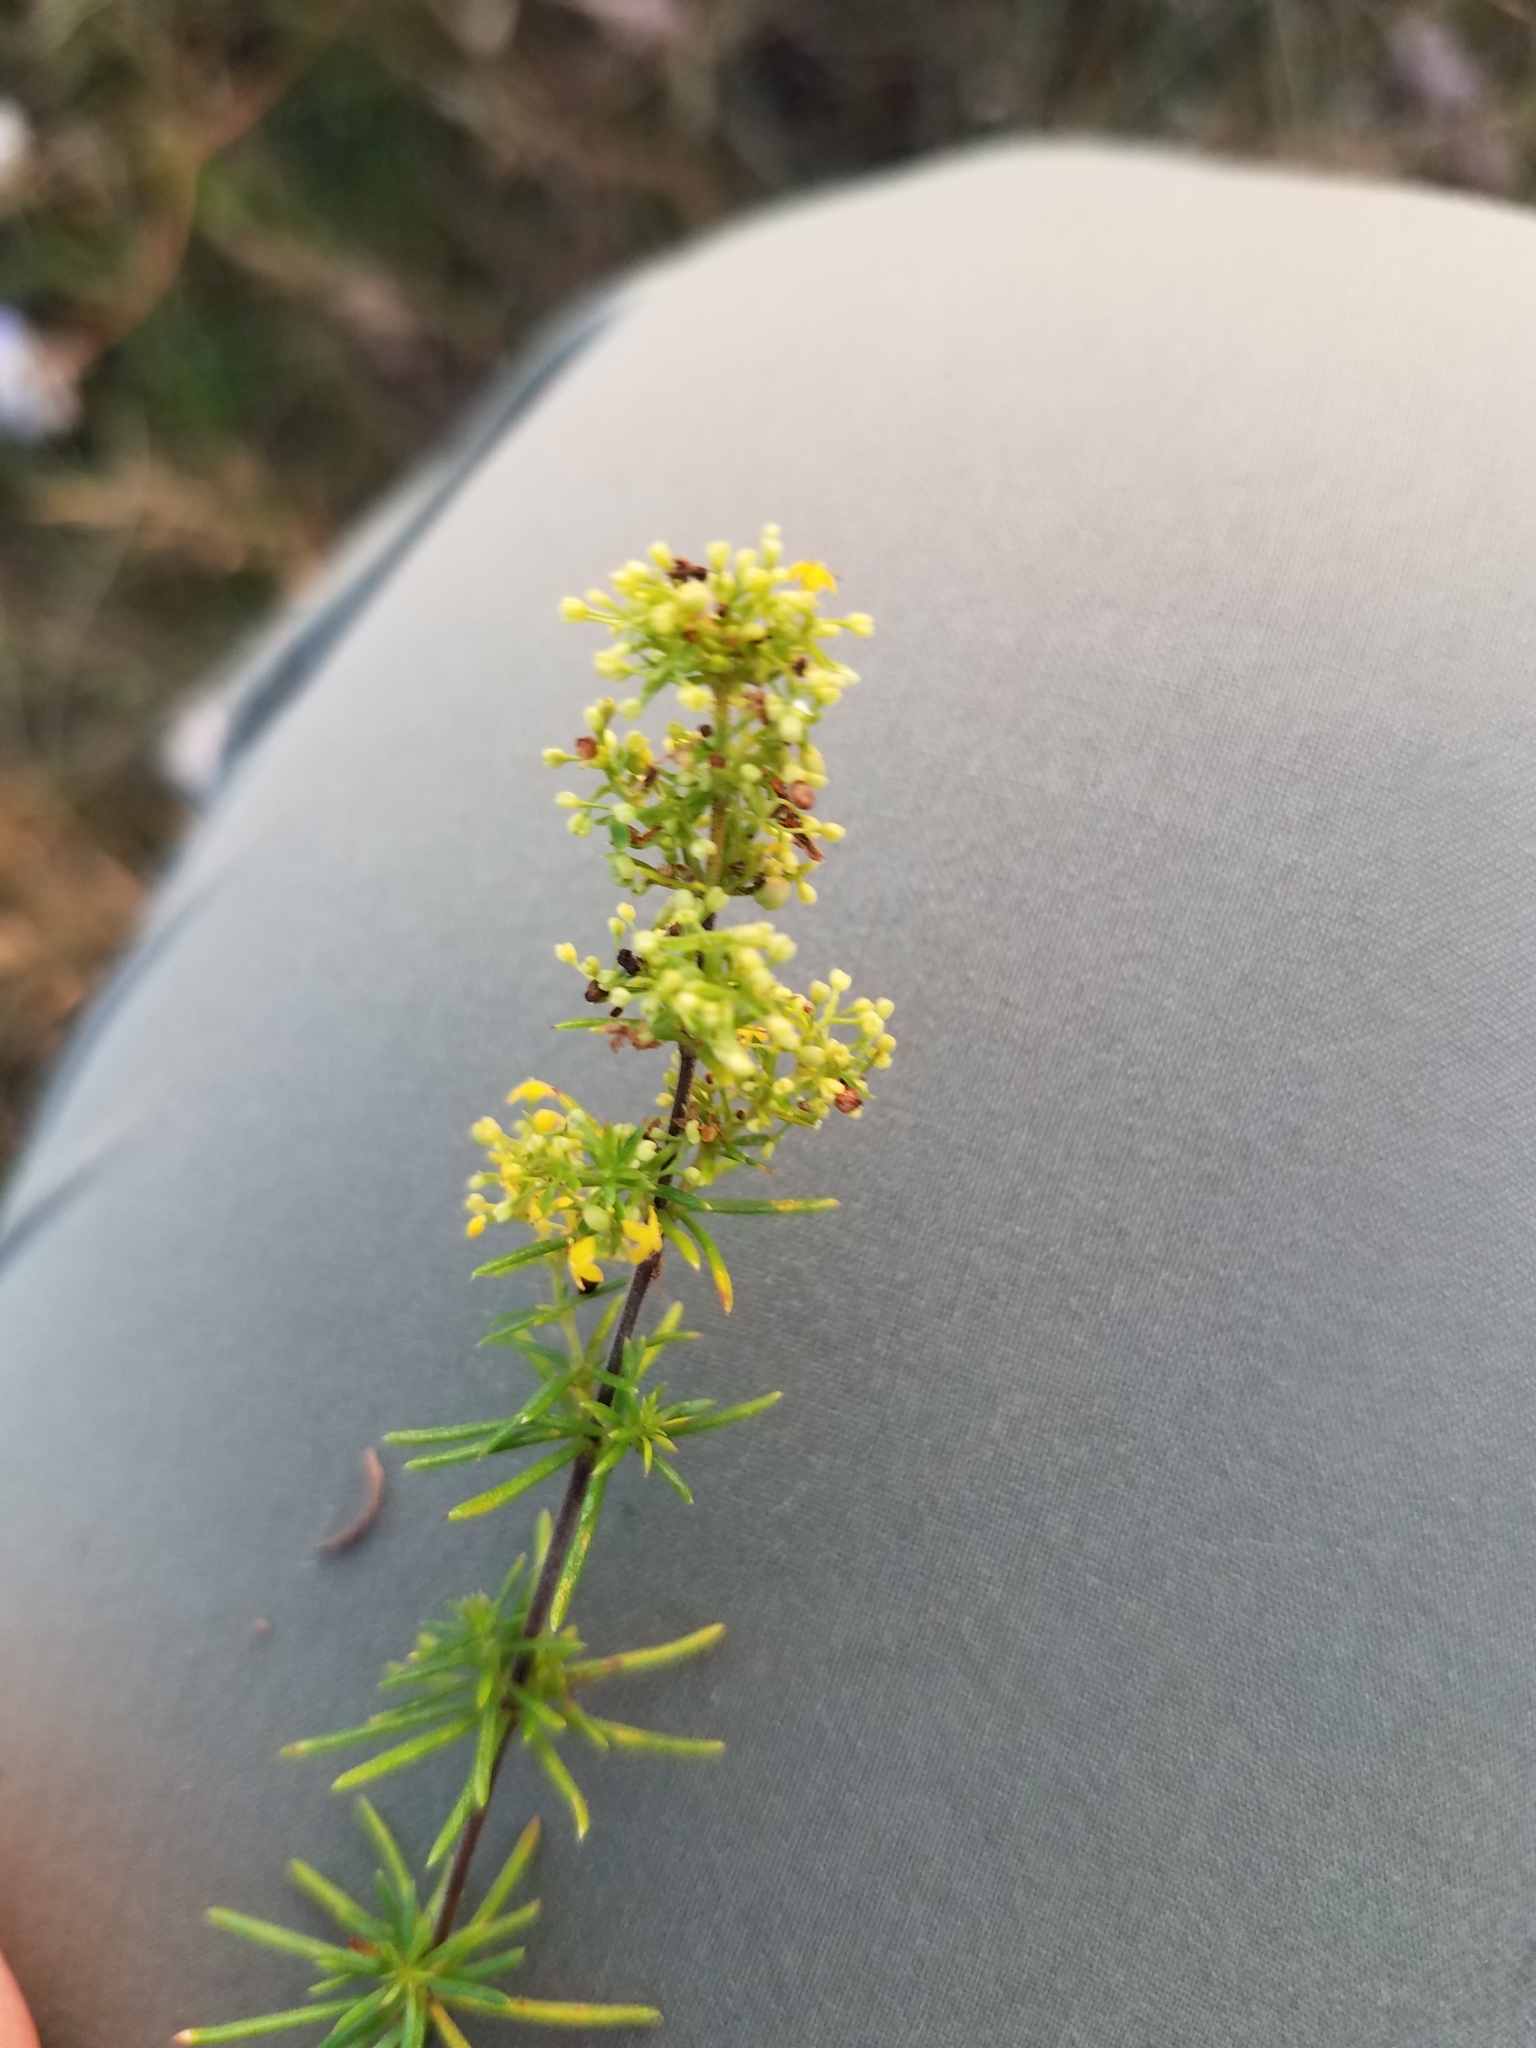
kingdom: Plantae
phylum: Tracheophyta
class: Magnoliopsida
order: Gentianales
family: Rubiaceae
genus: Galium
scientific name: Galium verum
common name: Lady's bedstraw
